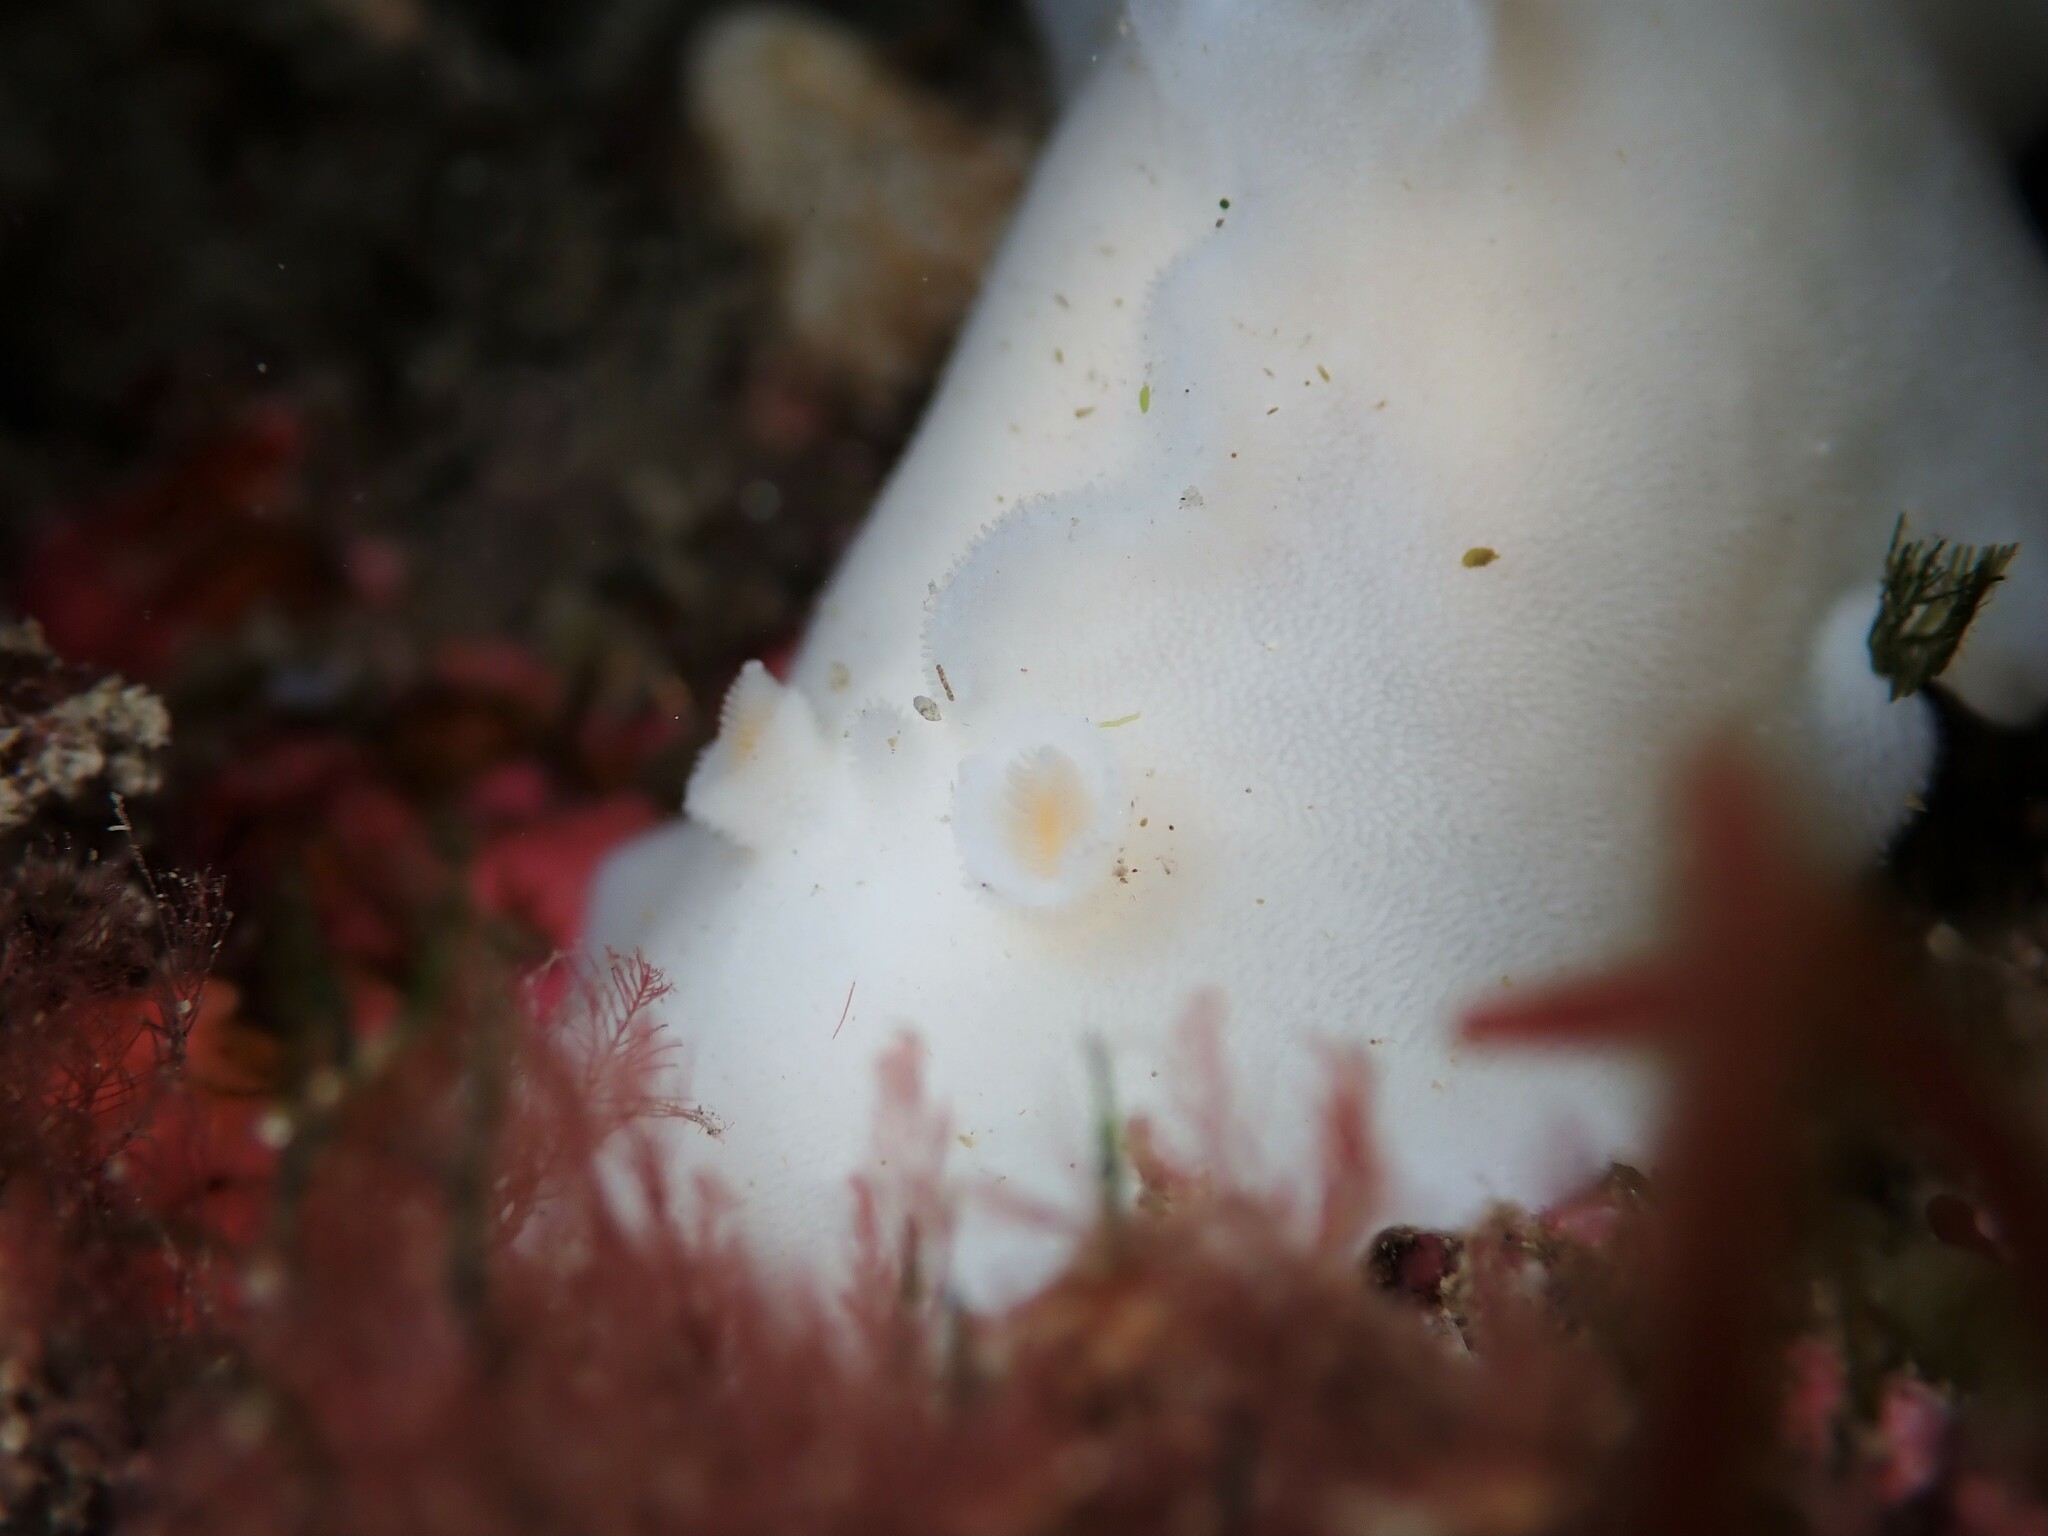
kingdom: Animalia
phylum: Mollusca
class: Gastropoda
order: Nudibranchia
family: Discodorididae
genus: Atagema
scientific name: Atagema carinata
